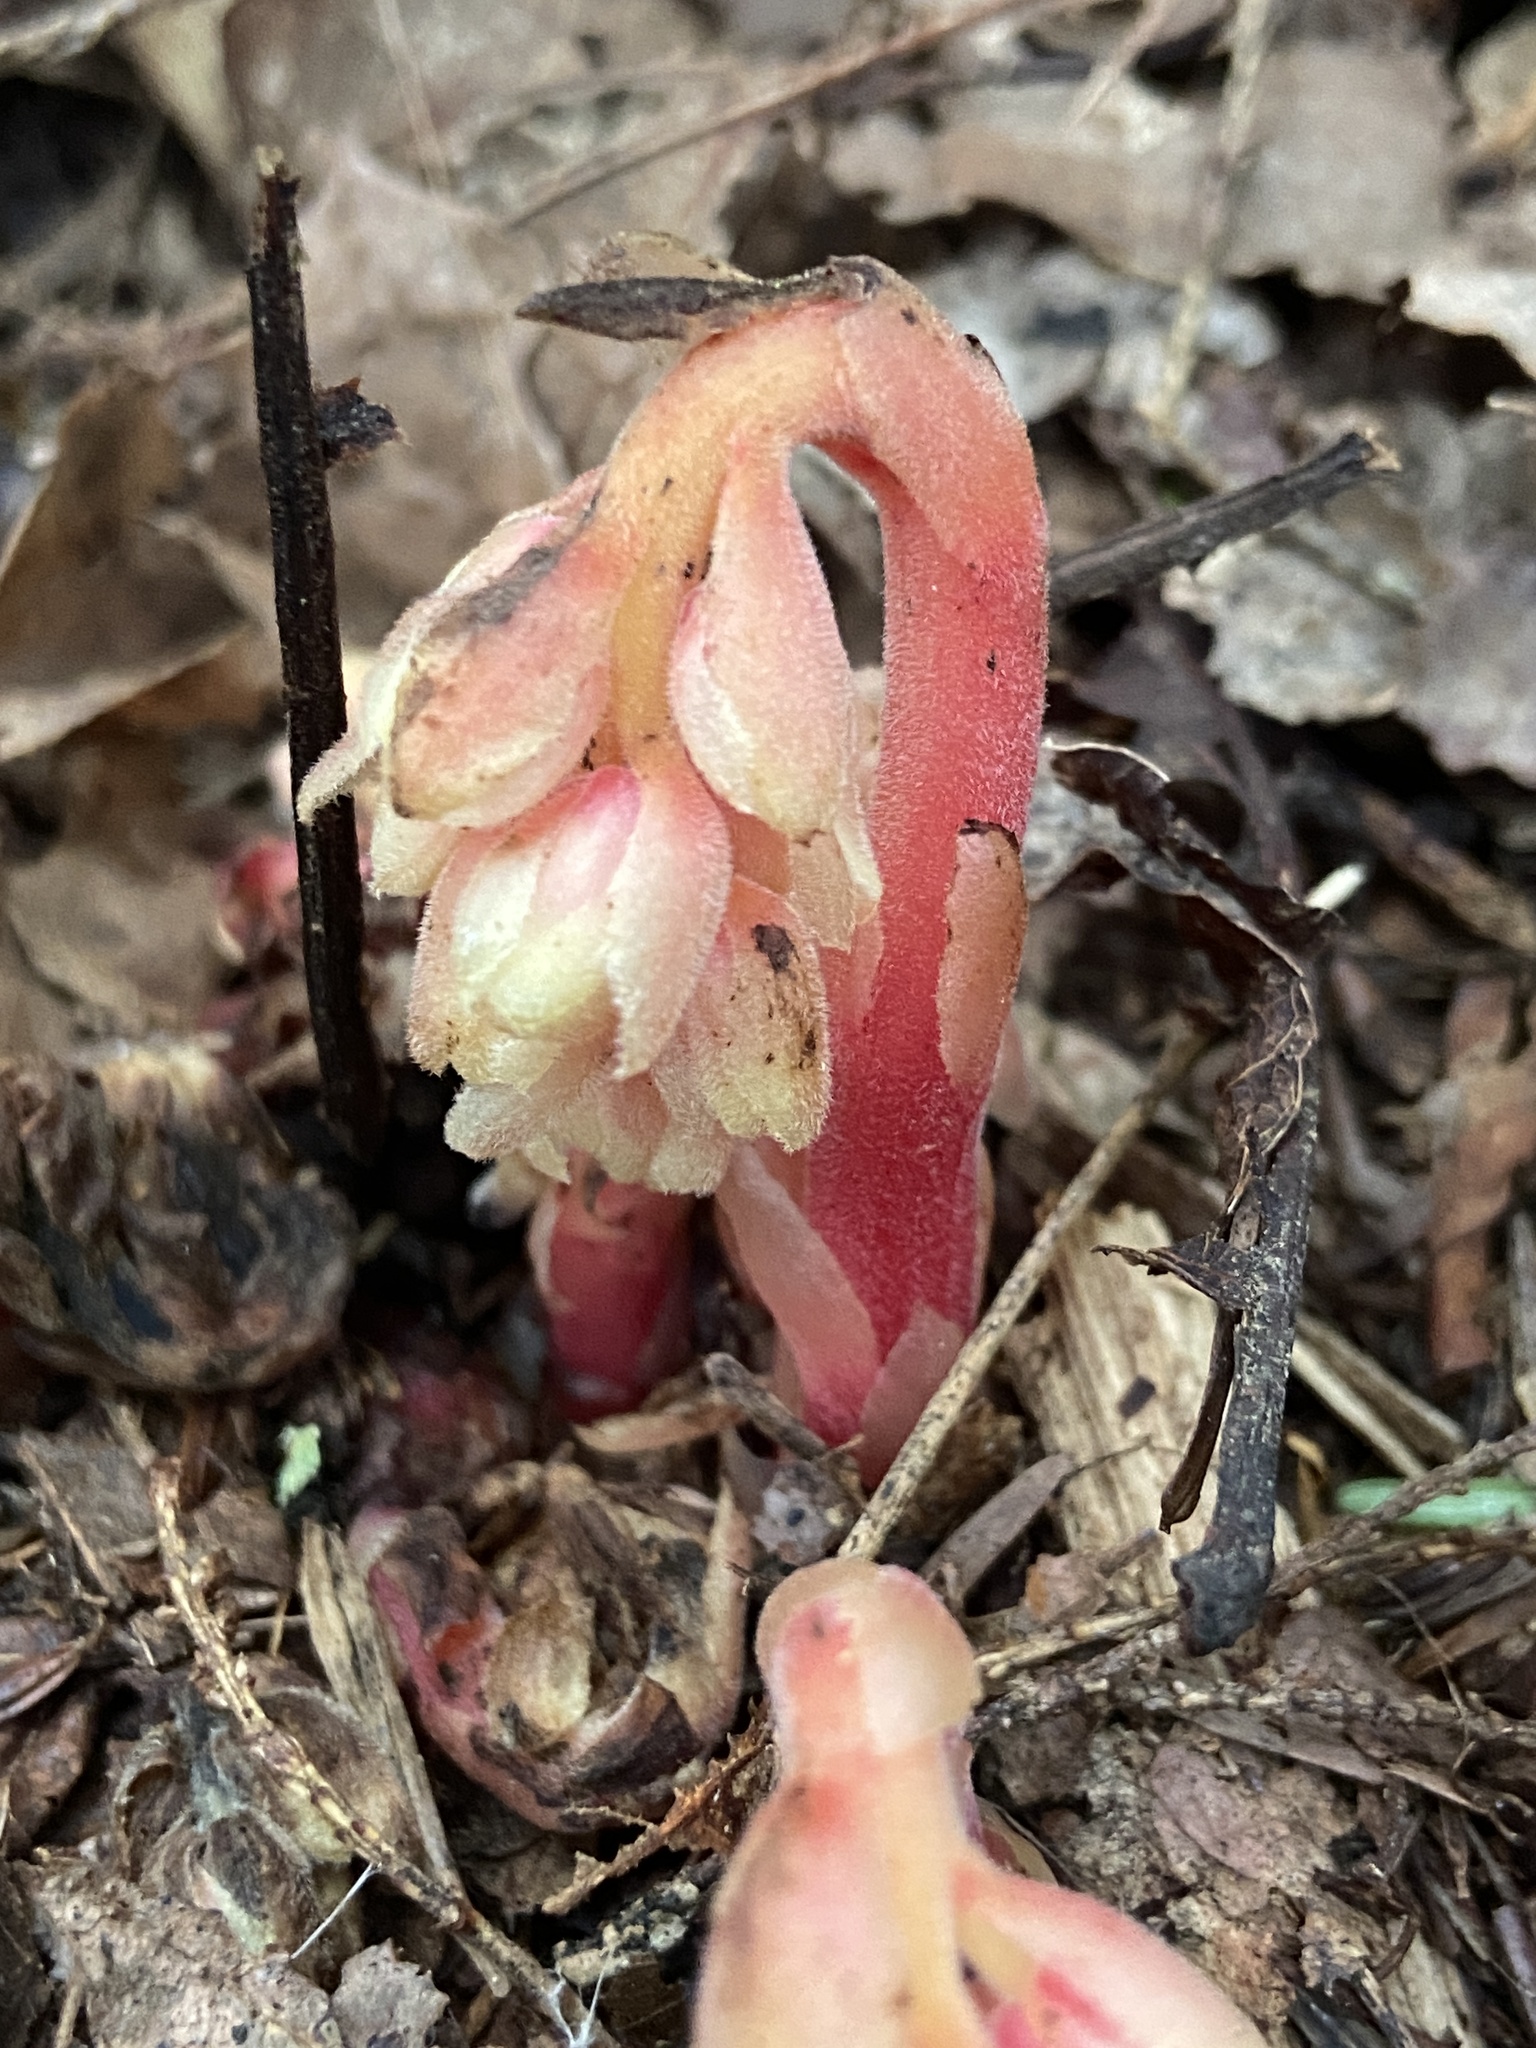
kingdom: Plantae
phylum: Tracheophyta
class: Magnoliopsida
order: Ericales
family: Ericaceae
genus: Hypopitys
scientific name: Hypopitys monotropa
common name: Yellow bird's-nest
